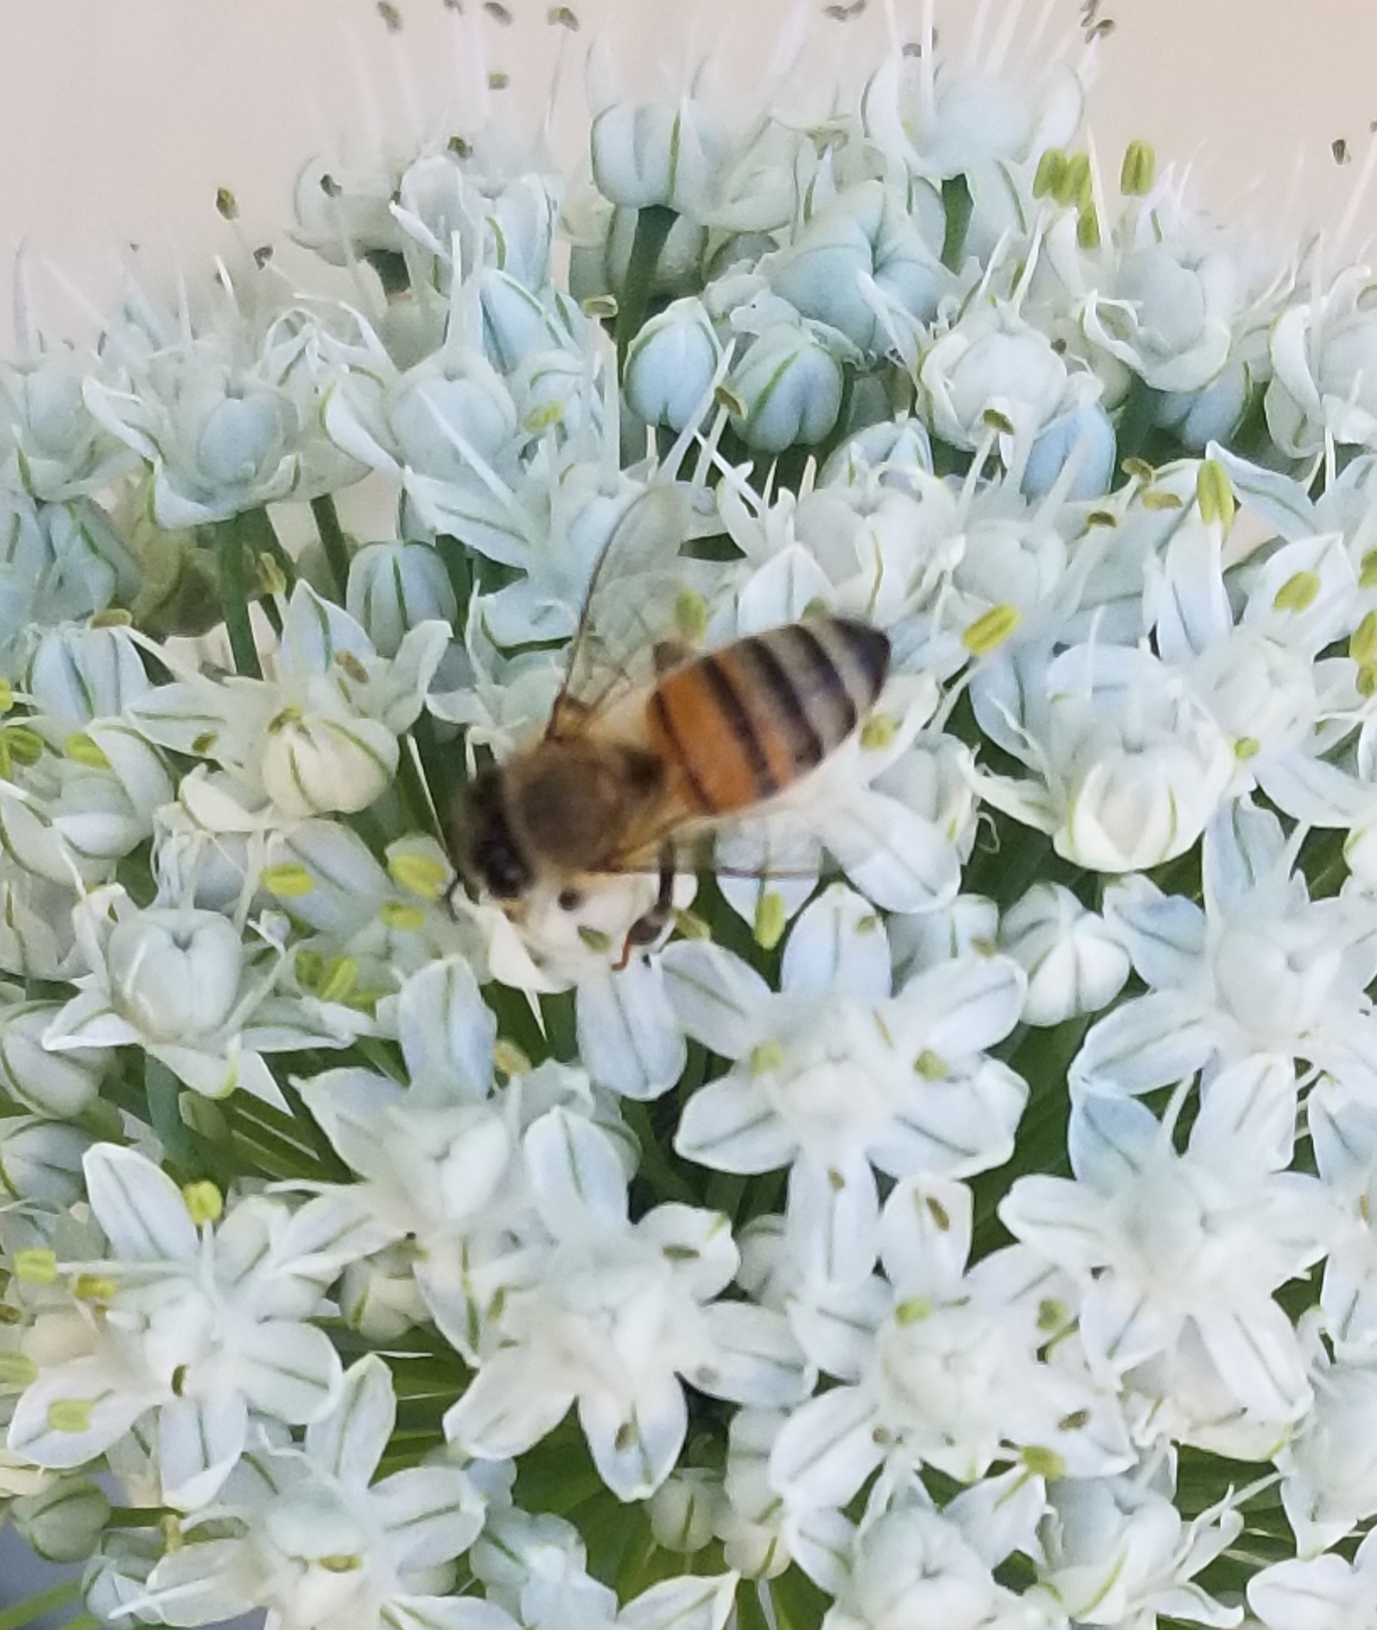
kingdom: Animalia
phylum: Arthropoda
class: Insecta
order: Hymenoptera
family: Apidae
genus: Apis
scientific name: Apis mellifera
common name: Honey bee
